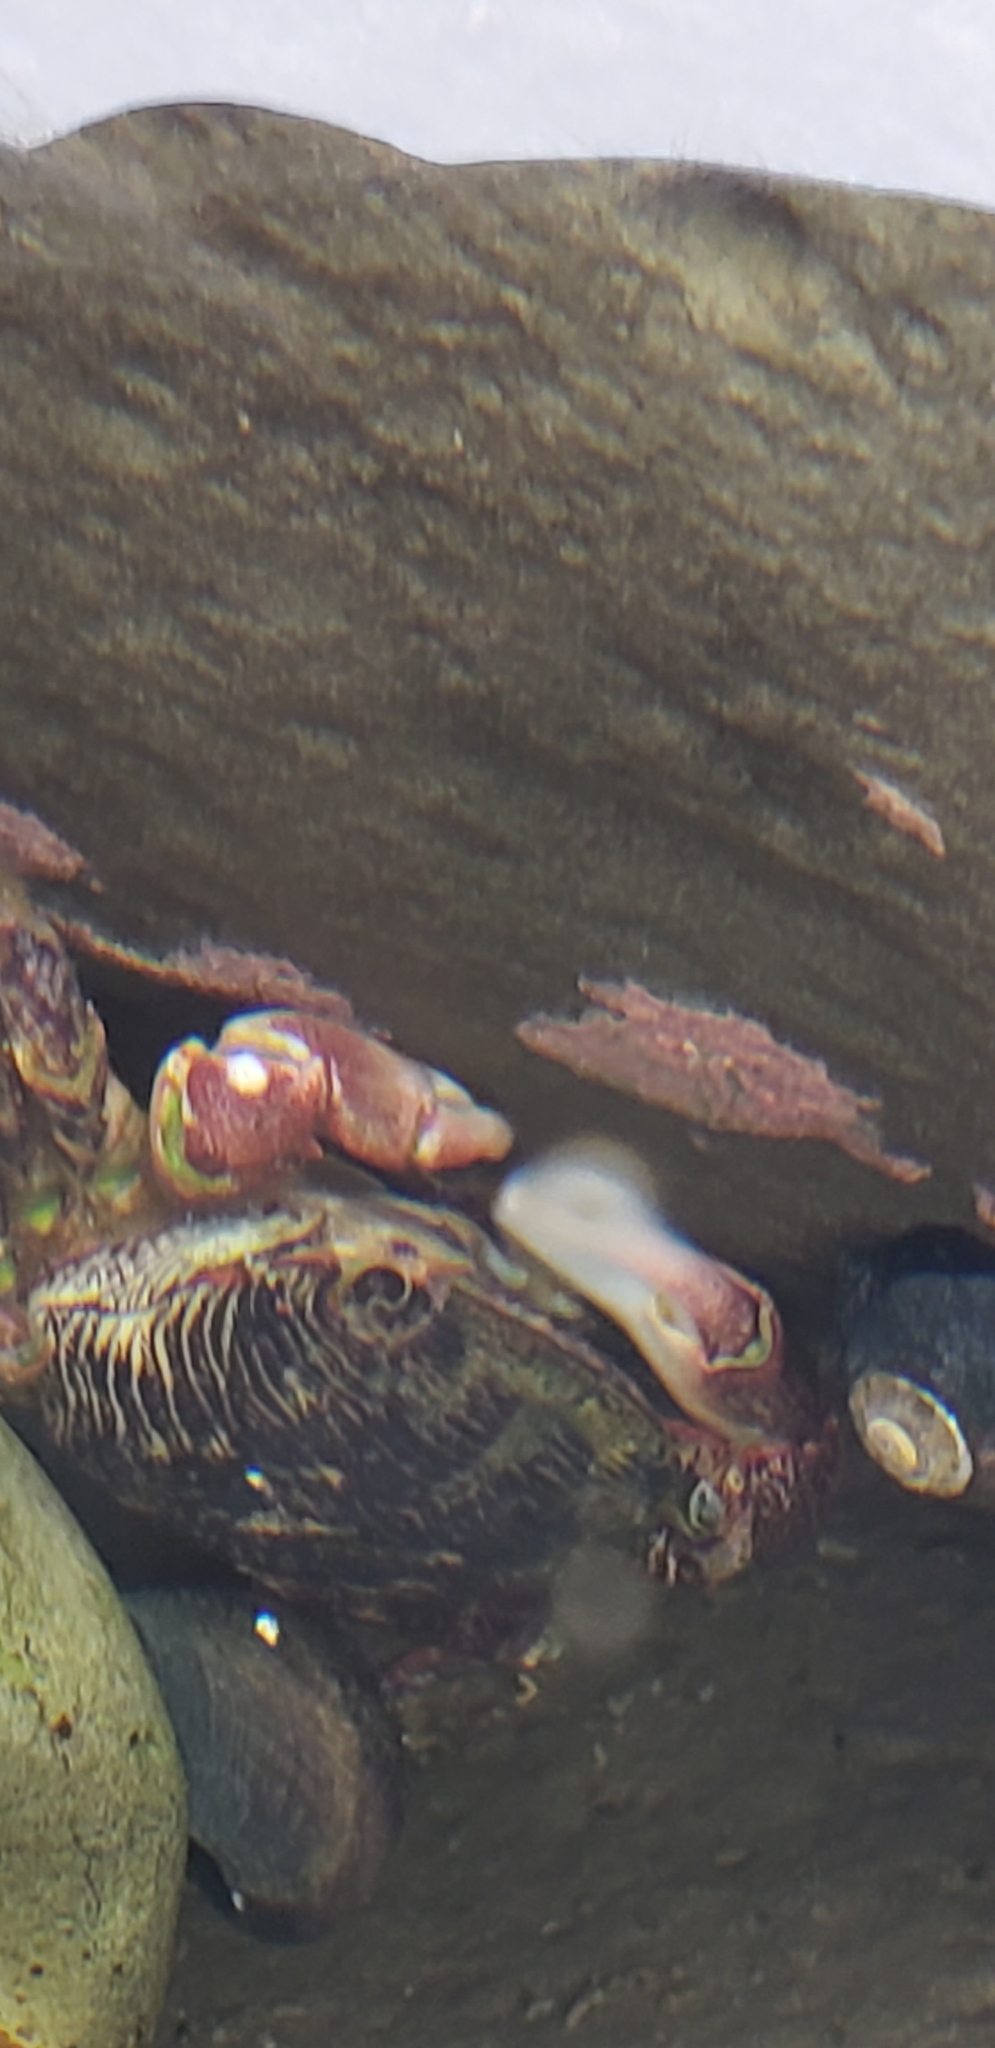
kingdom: Animalia
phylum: Arthropoda
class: Malacostraca
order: Decapoda
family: Grapsidae
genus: Pachygrapsus
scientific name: Pachygrapsus crassipes
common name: Striped shore crab
